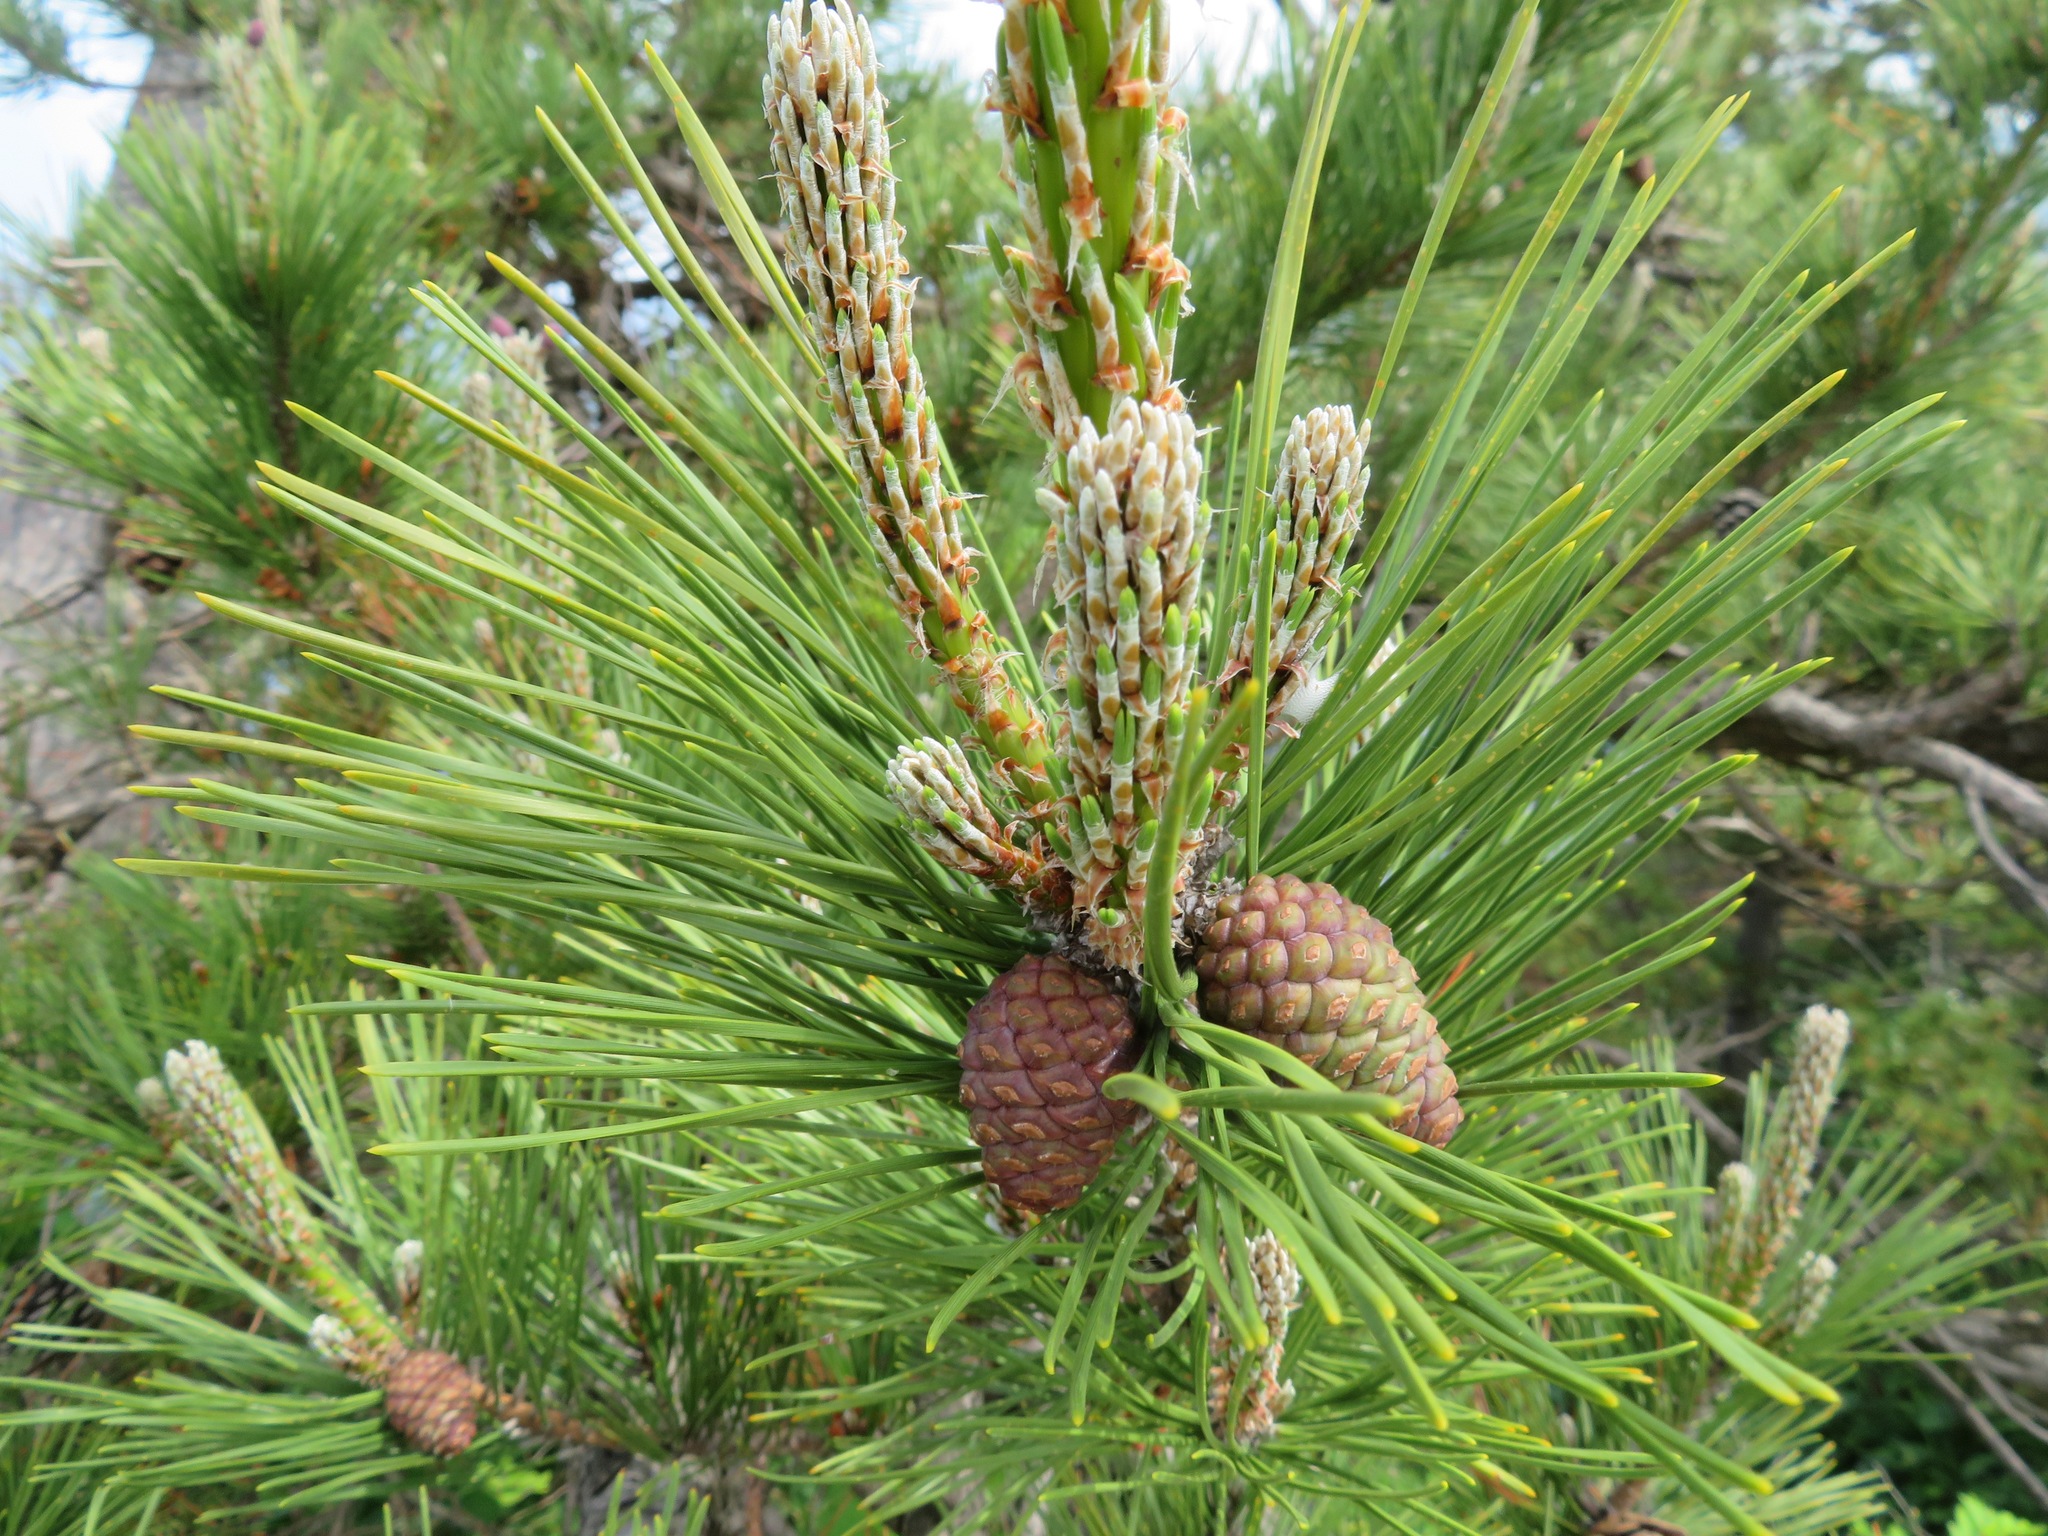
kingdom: Plantae
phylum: Tracheophyta
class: Pinopsida
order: Pinales
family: Pinaceae
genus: Pinus
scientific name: Pinus thunbergii
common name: Japanese black pine
